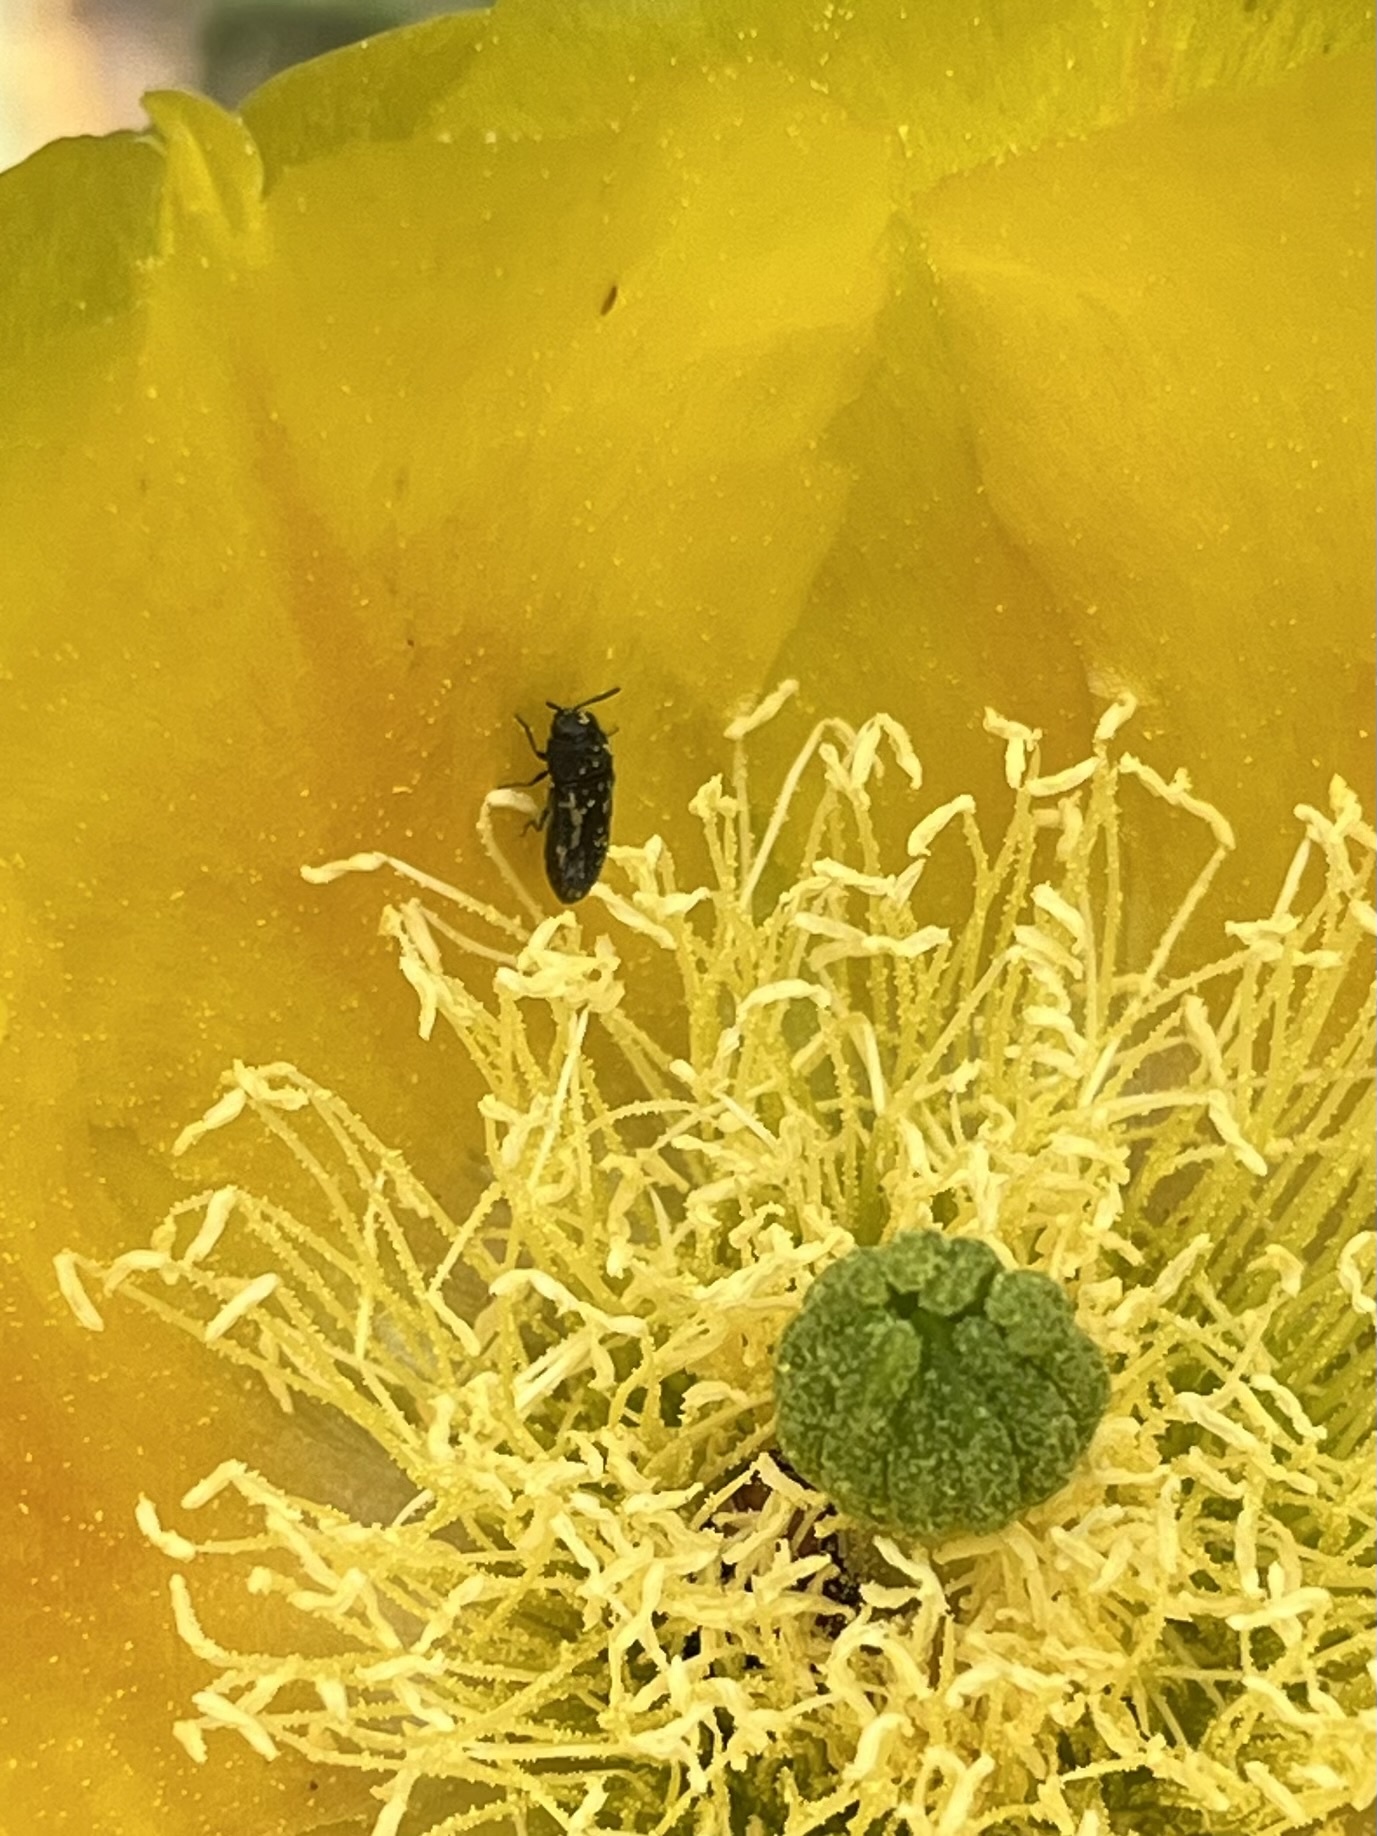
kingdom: Animalia
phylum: Arthropoda
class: Insecta
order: Coleoptera
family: Buprestidae
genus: Acmaeodera
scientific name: Acmaeodera neglecta
